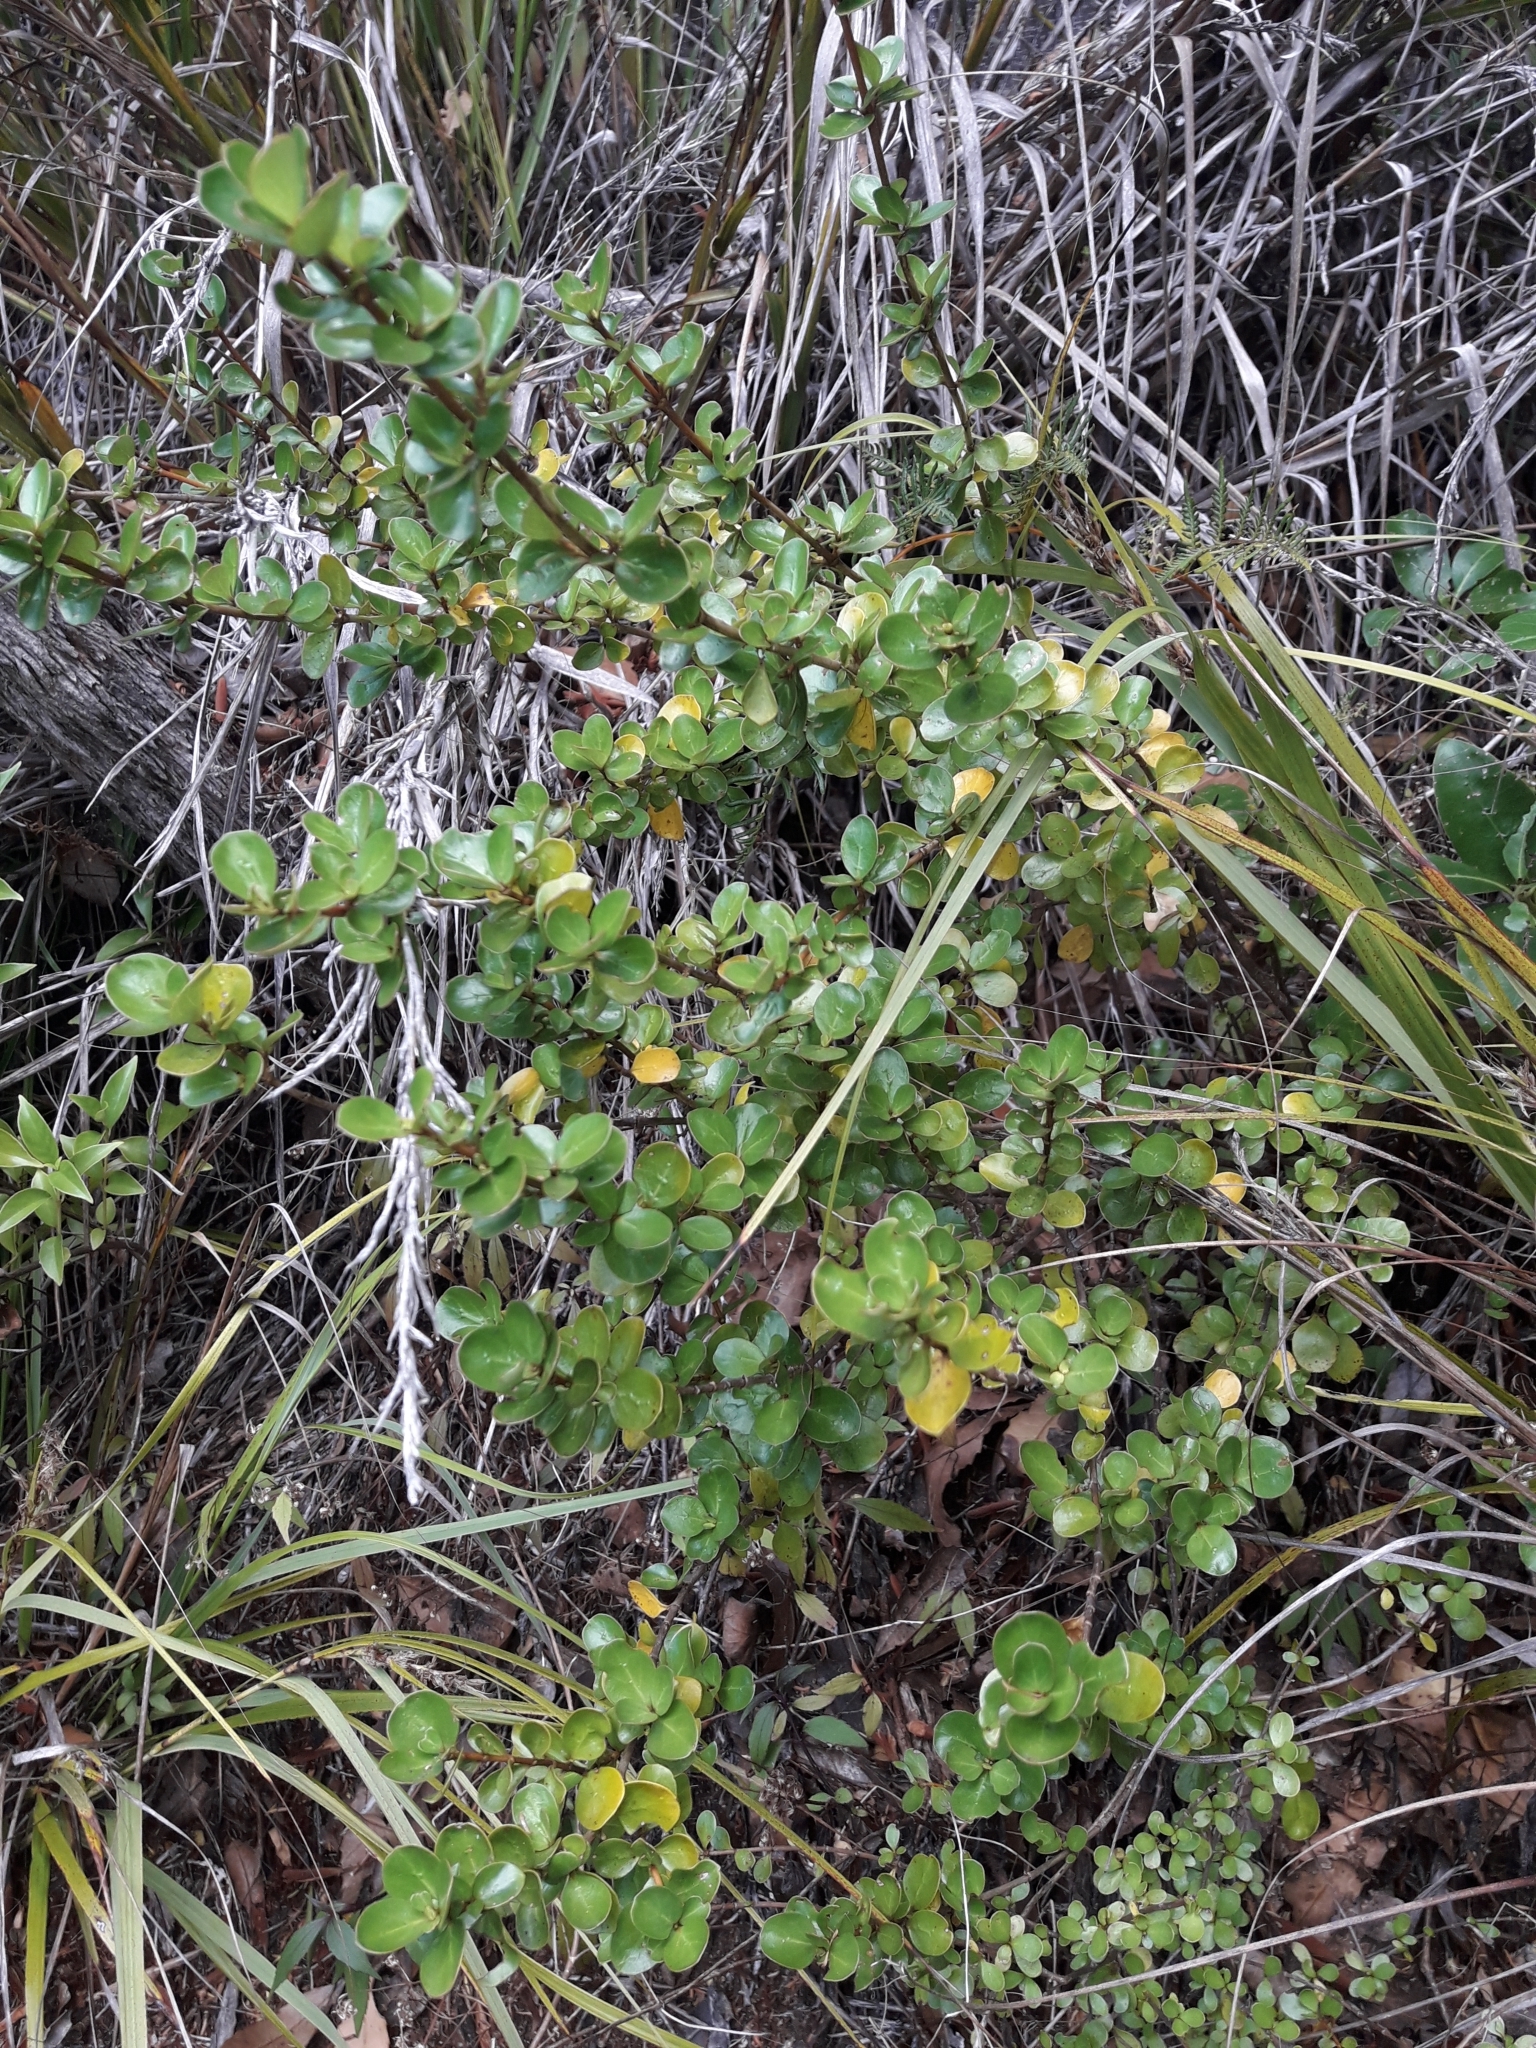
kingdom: Plantae
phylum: Tracheophyta
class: Magnoliopsida
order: Gentianales
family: Rubiaceae
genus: Coprosma
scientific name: Coprosma neglecta
